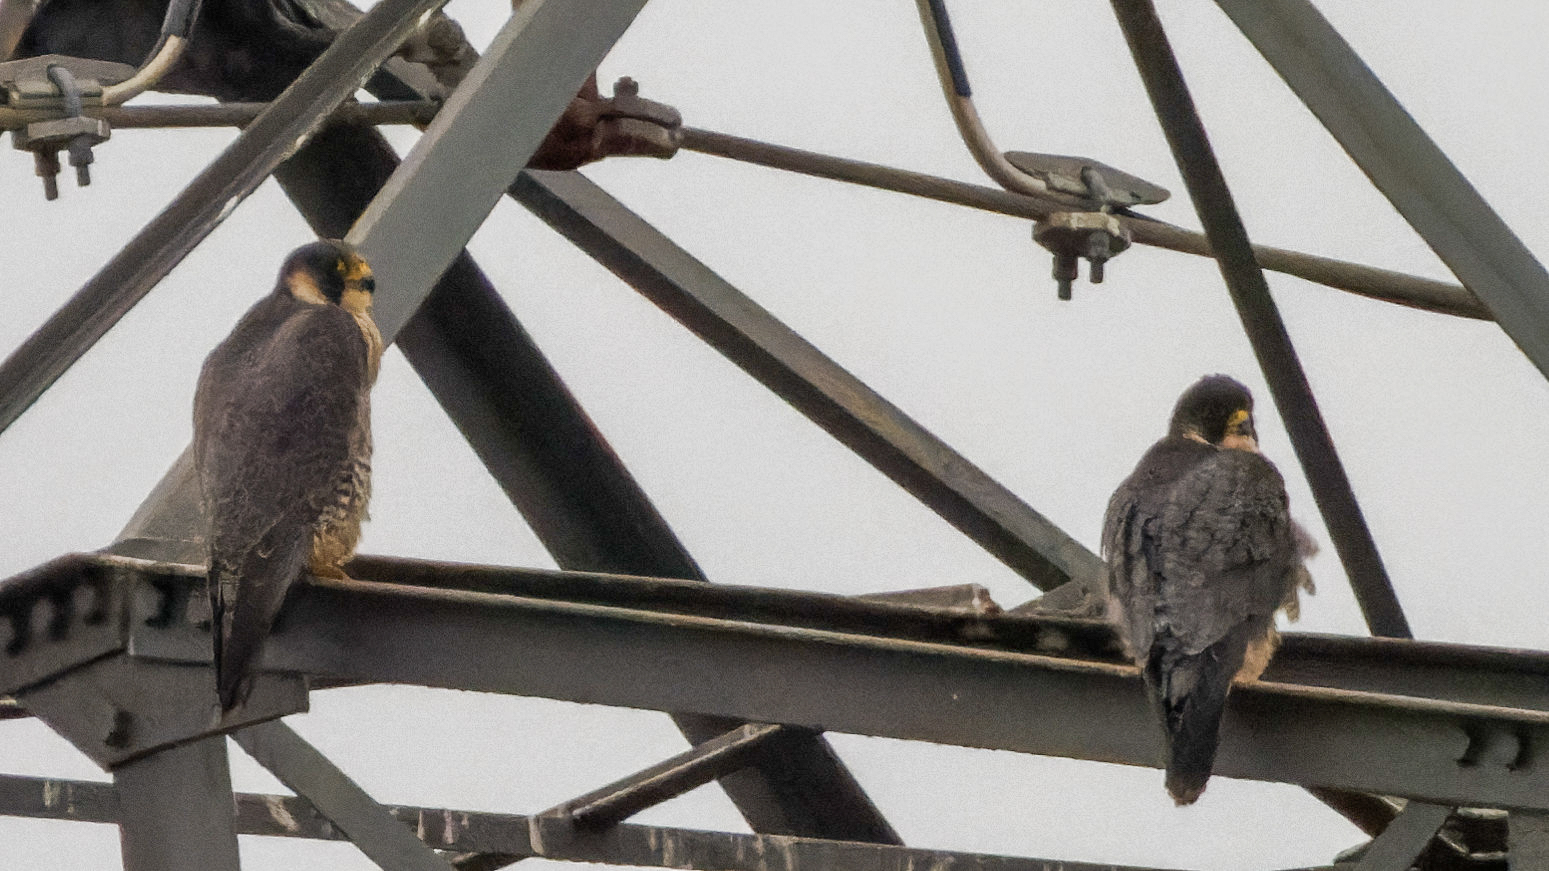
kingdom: Animalia
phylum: Chordata
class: Aves
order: Falconiformes
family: Falconidae
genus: Falco
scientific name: Falco peregrinus
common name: Peregrine falcon
